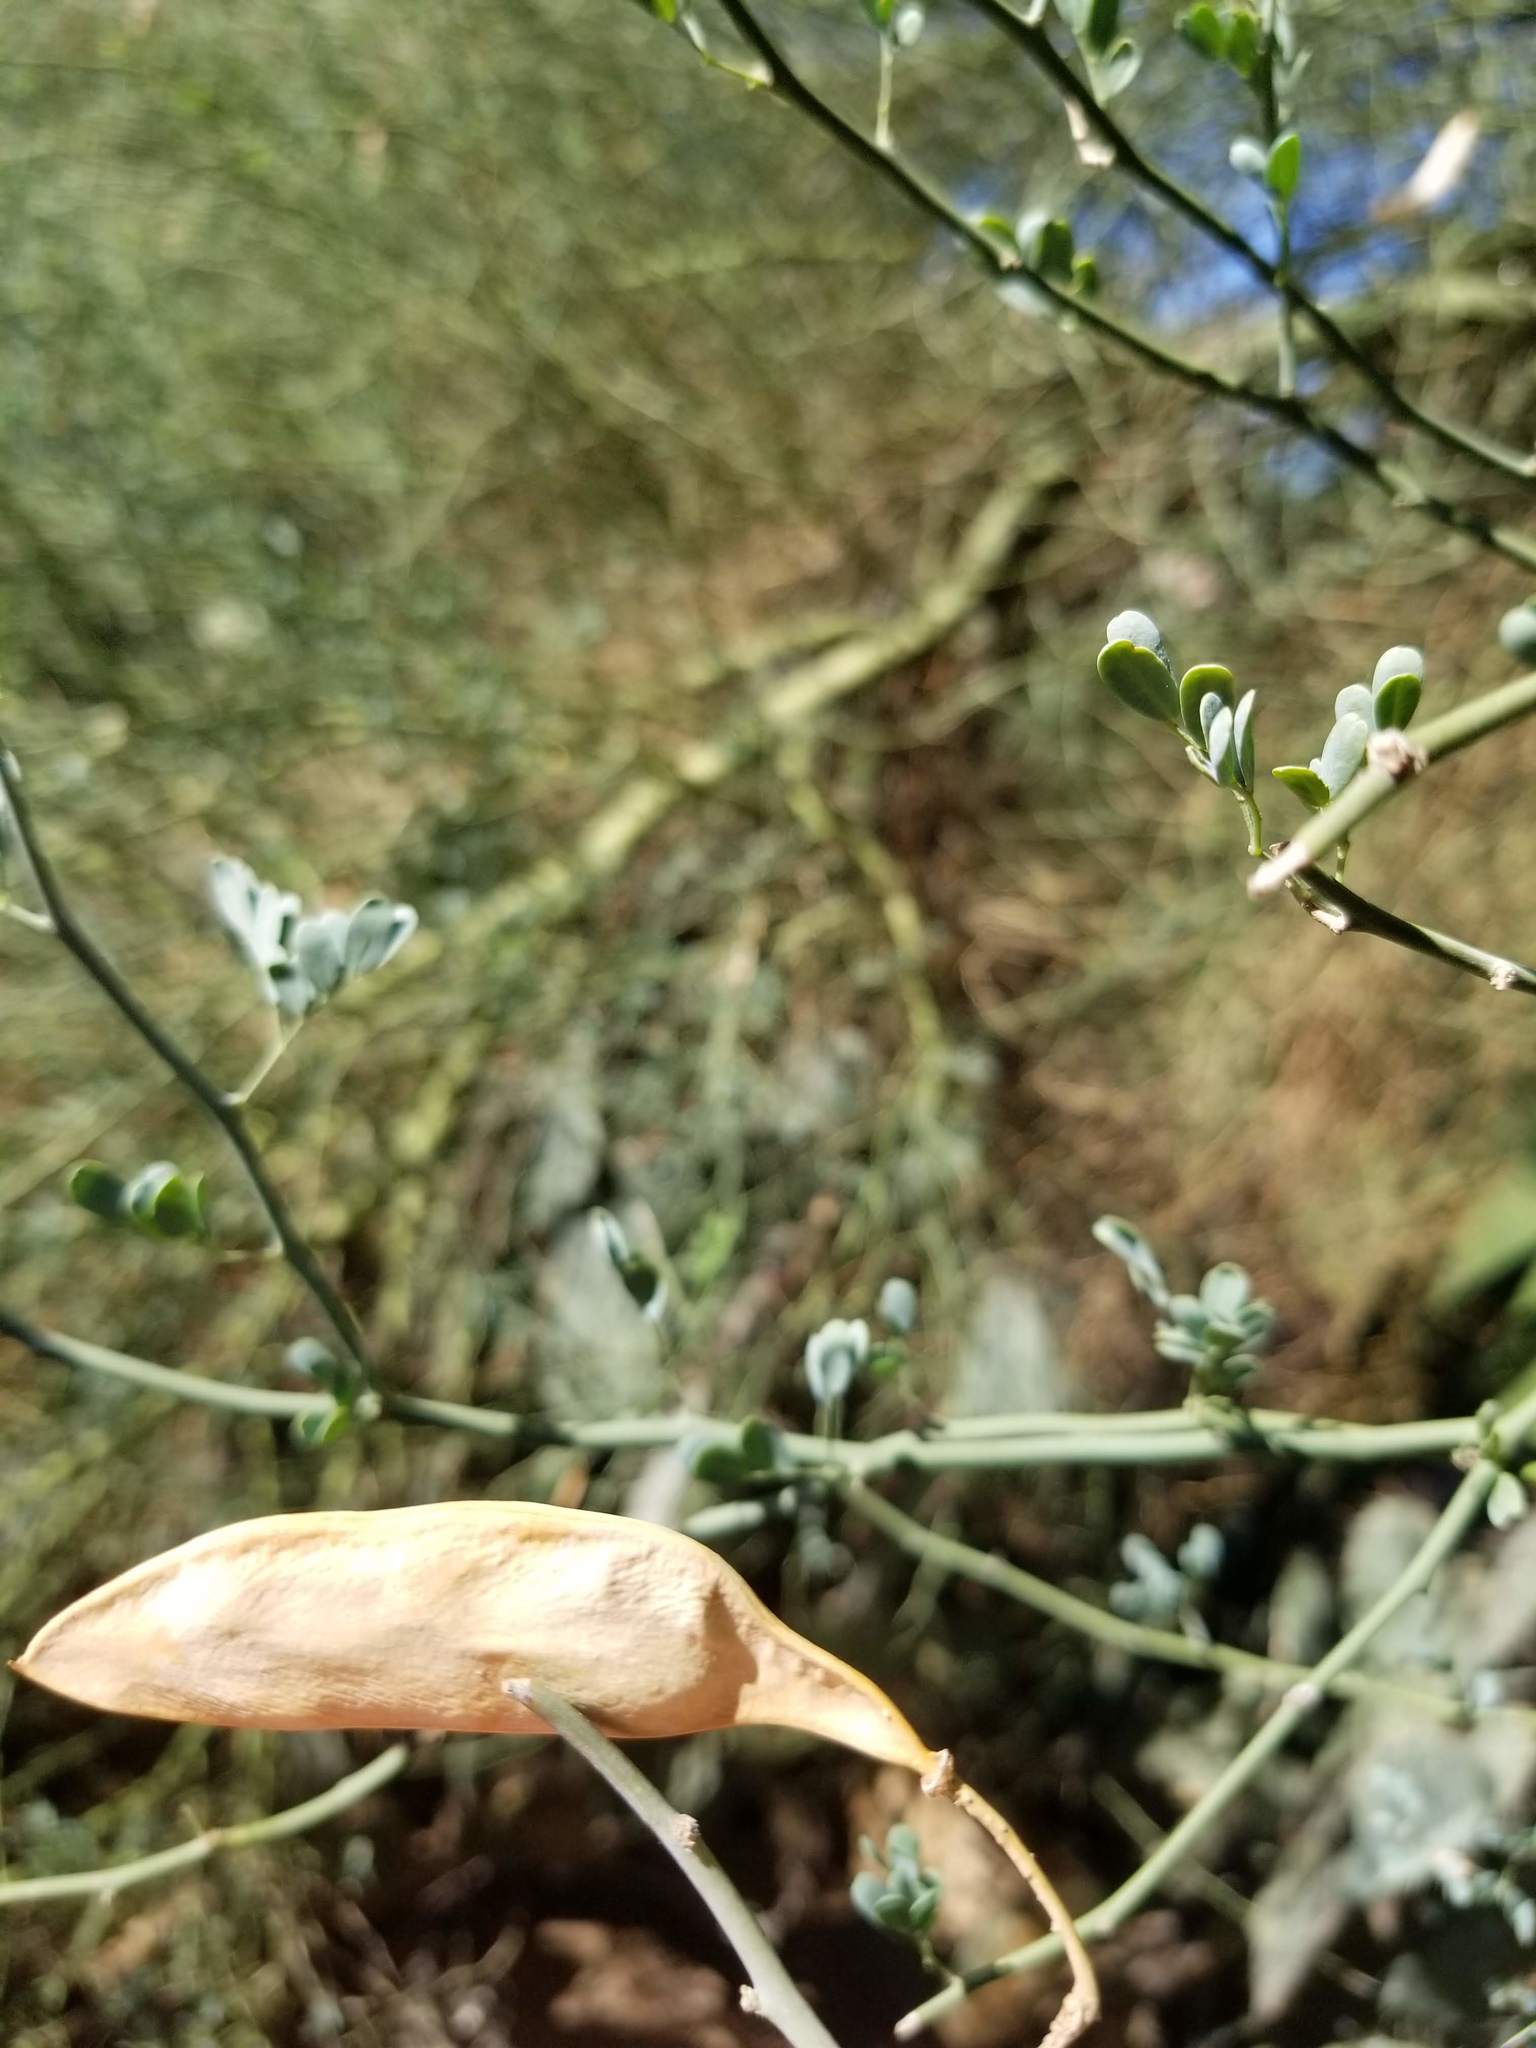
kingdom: Plantae
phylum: Tracheophyta
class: Magnoliopsida
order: Fabales
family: Fabaceae
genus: Parkinsonia
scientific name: Parkinsonia florida
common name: Blue paloverde
